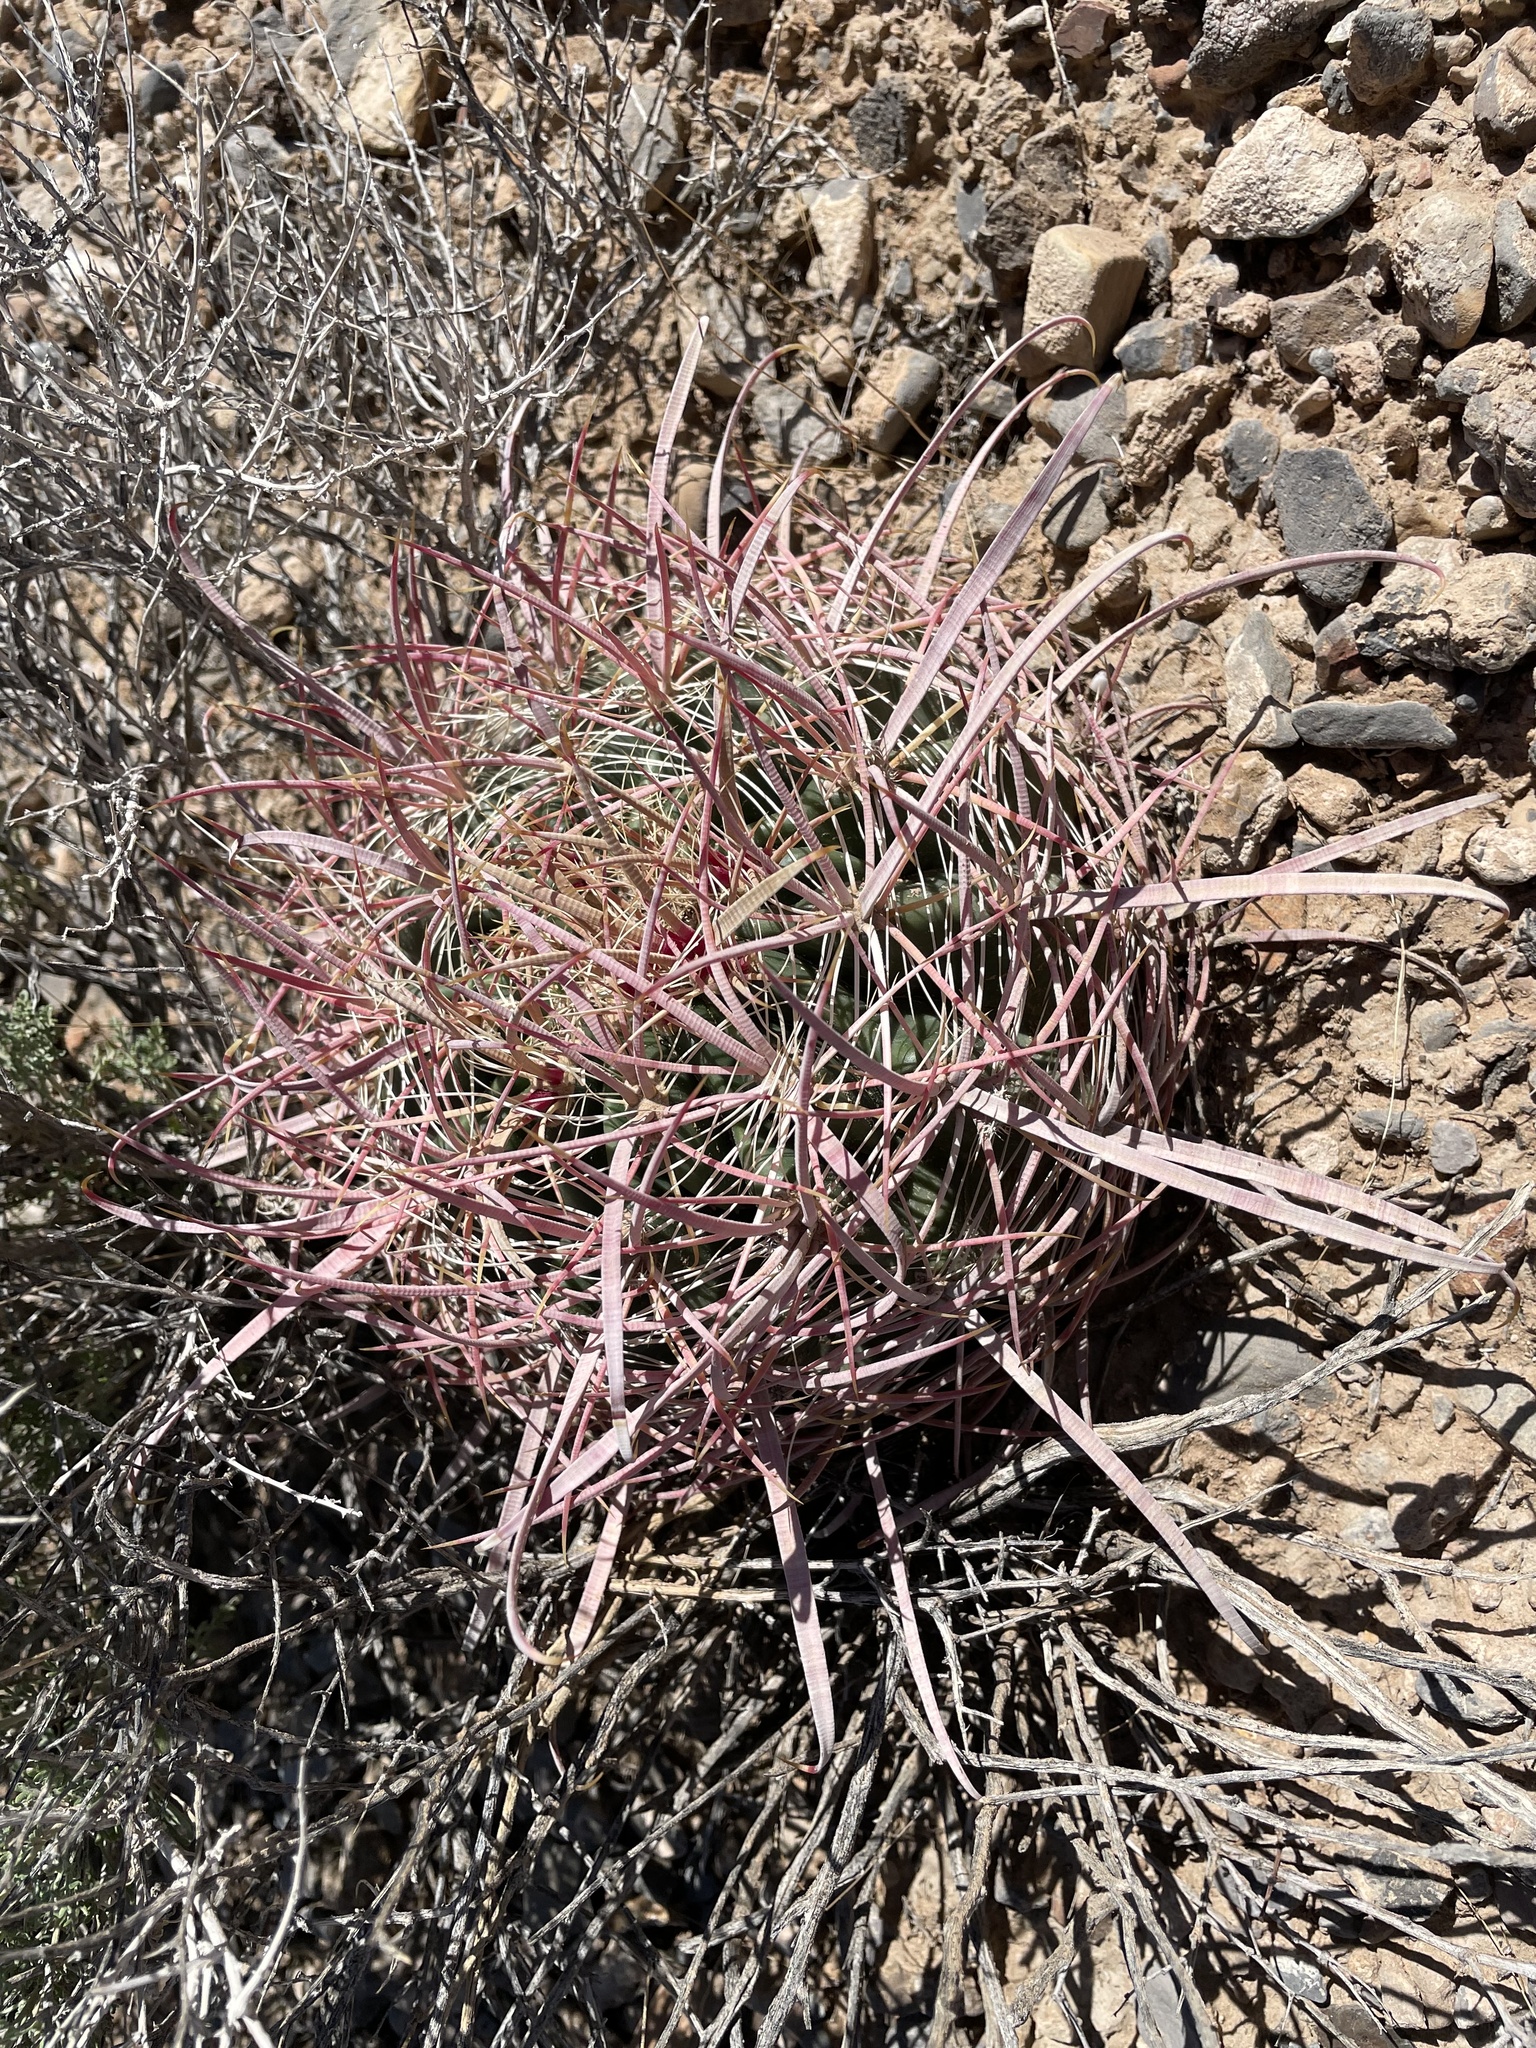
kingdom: Plantae
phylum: Tracheophyta
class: Magnoliopsida
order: Caryophyllales
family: Cactaceae
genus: Ferocactus
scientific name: Ferocactus cylindraceus
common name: California barrel cactus
